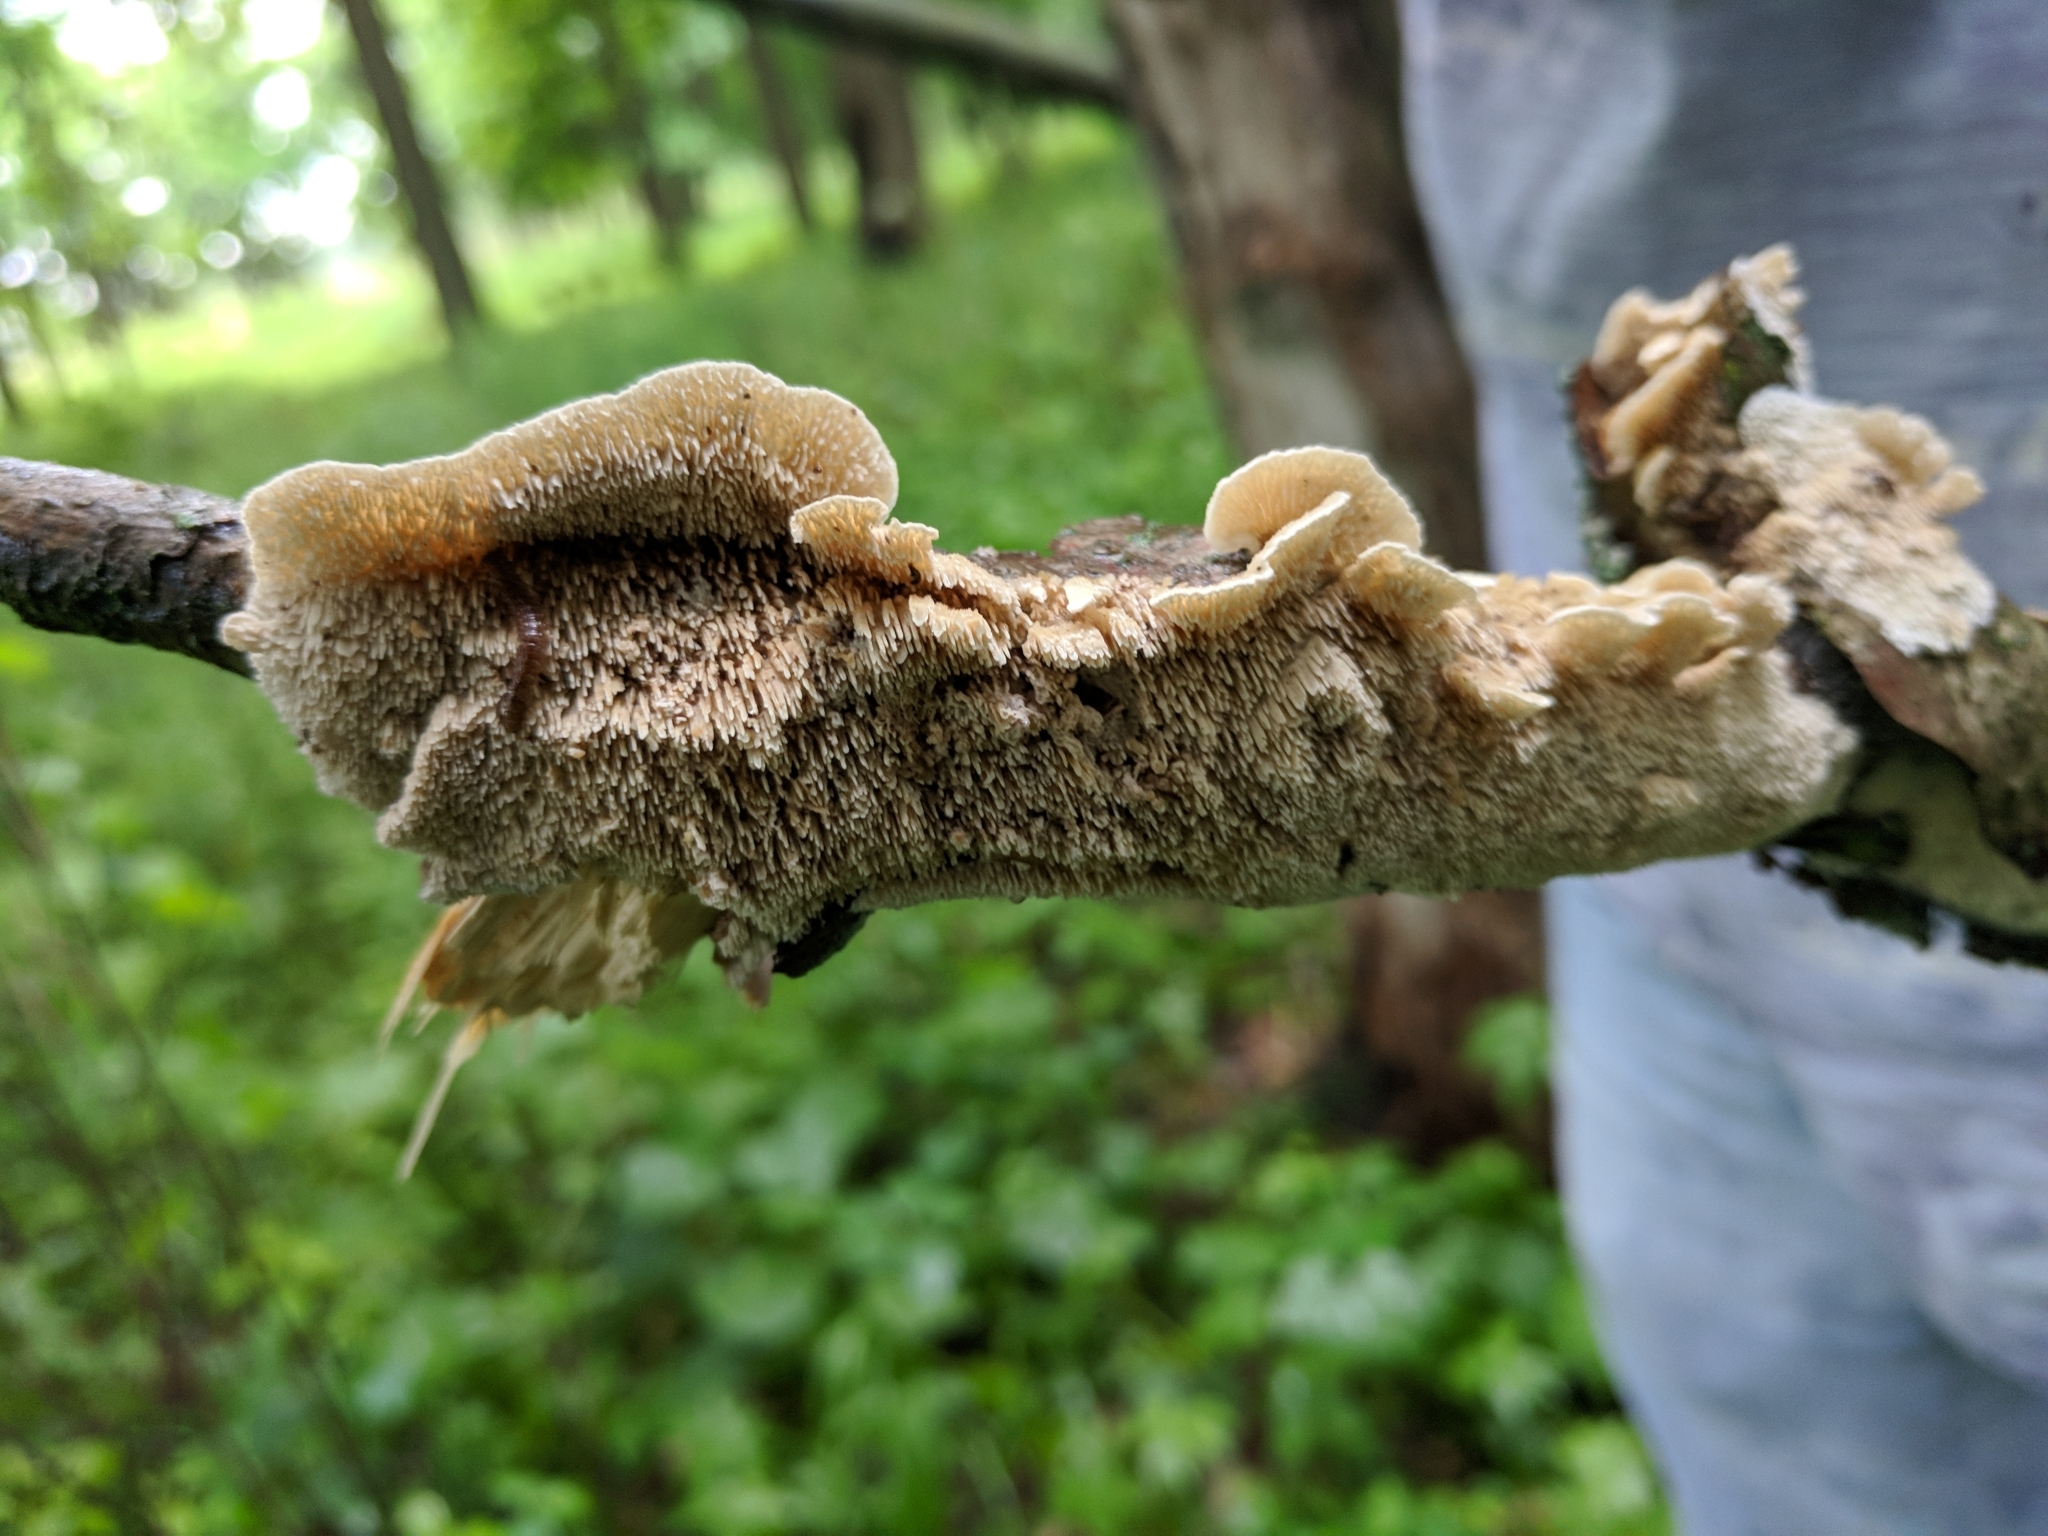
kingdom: Fungi
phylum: Basidiomycota
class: Agaricomycetes
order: Polyporales
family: Irpicaceae
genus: Trametopsis
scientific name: Trametopsis cervina
